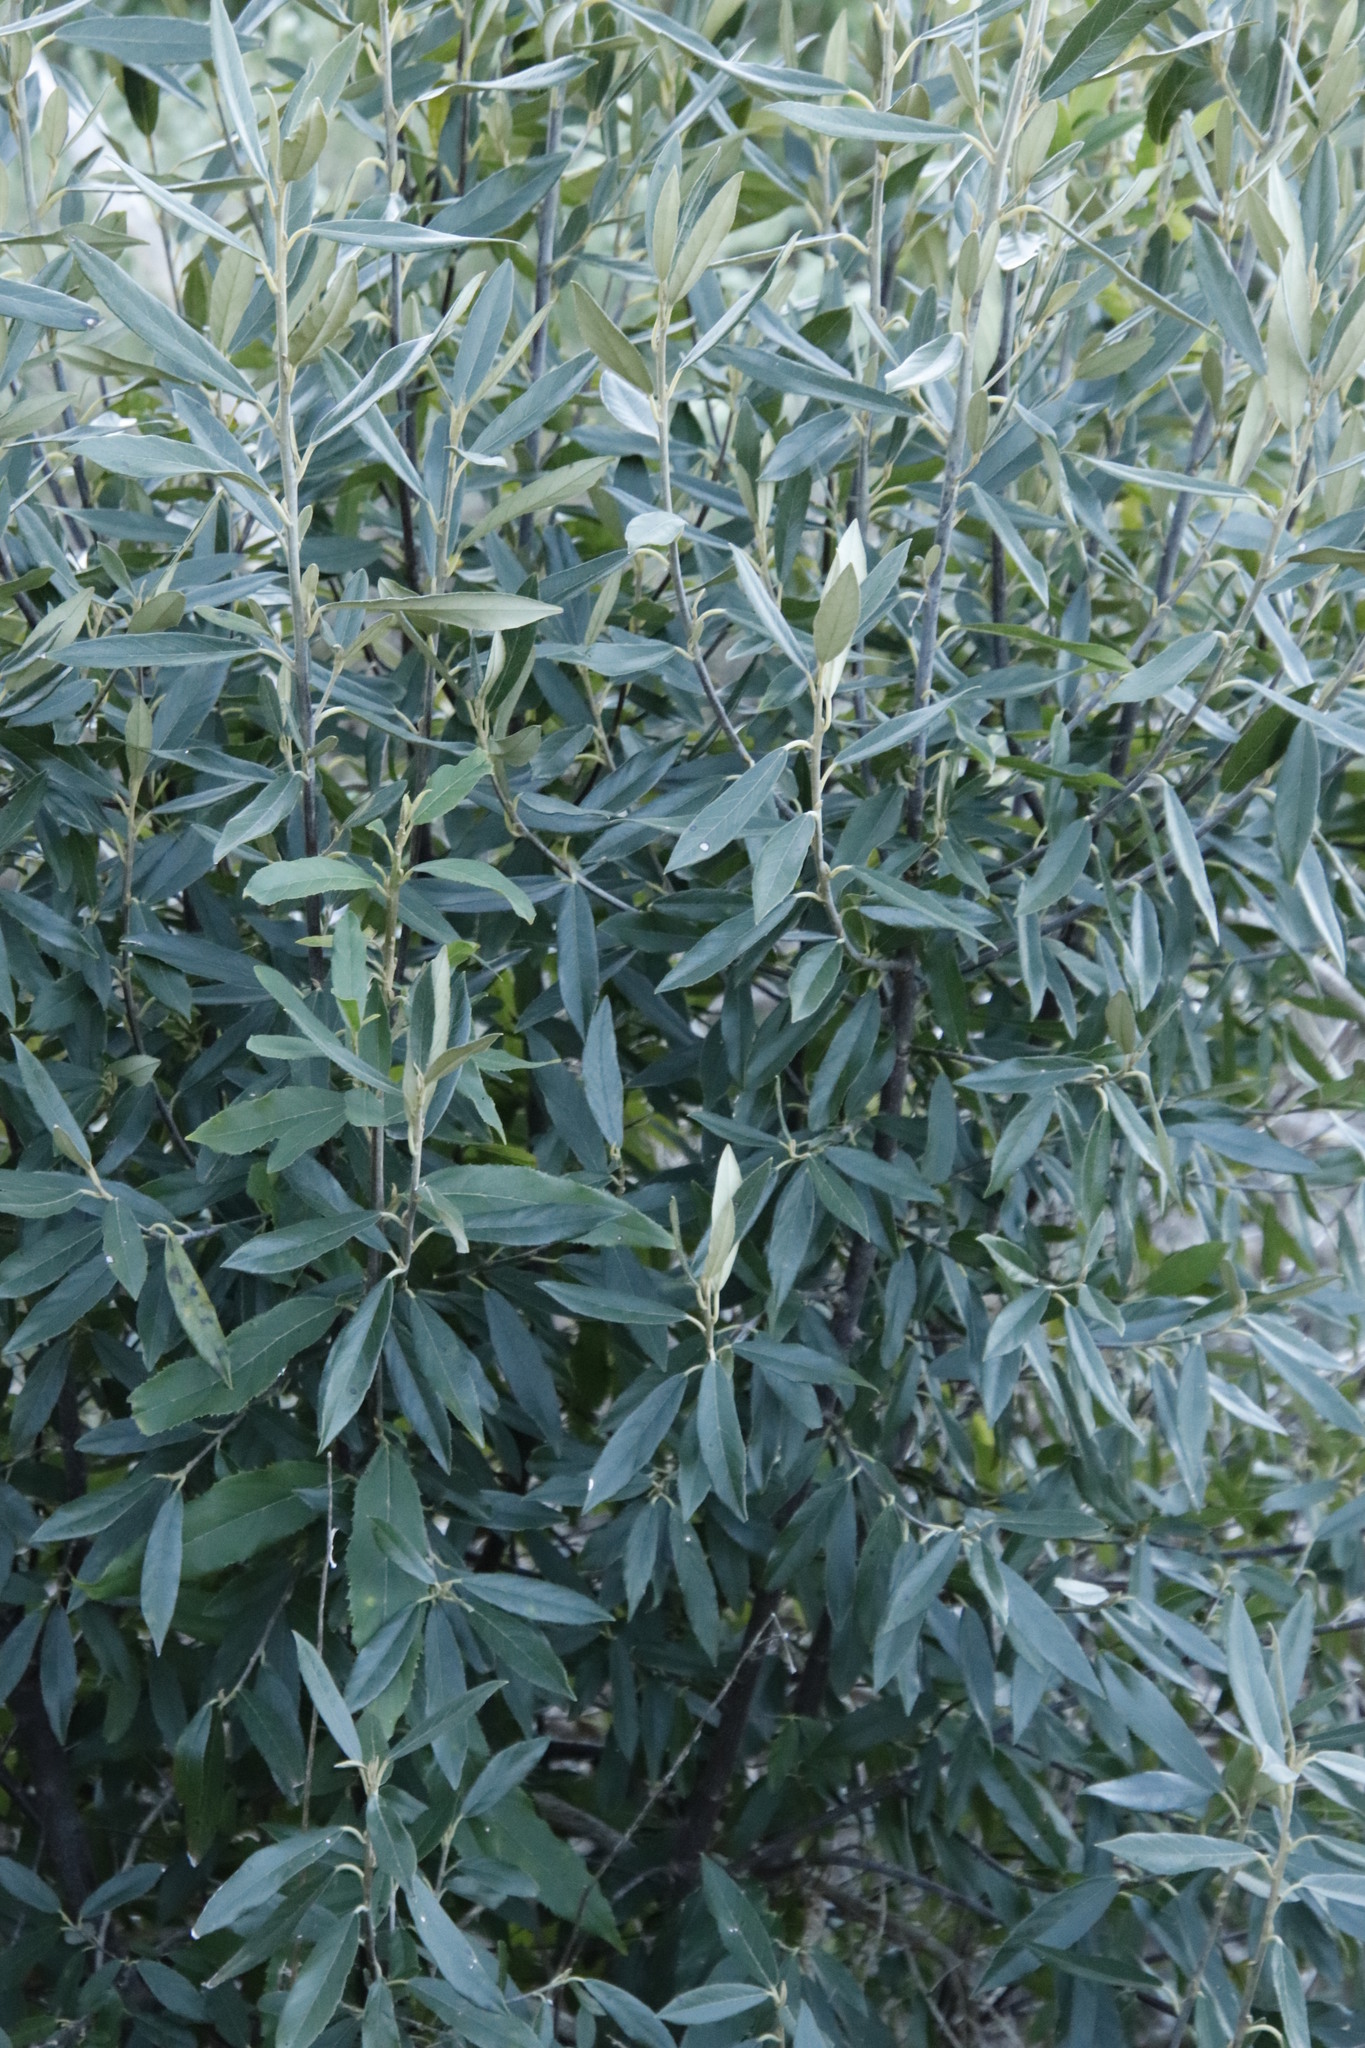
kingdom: Plantae
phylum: Tracheophyta
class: Magnoliopsida
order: Malpighiales
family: Achariaceae
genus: Kiggelaria
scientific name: Kiggelaria africana
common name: Wild peach
